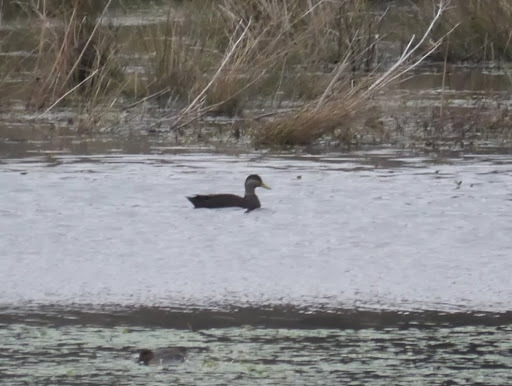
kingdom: Animalia
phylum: Chordata
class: Aves
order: Anseriformes
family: Anatidae
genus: Anas
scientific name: Anas rubripes
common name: American black duck
